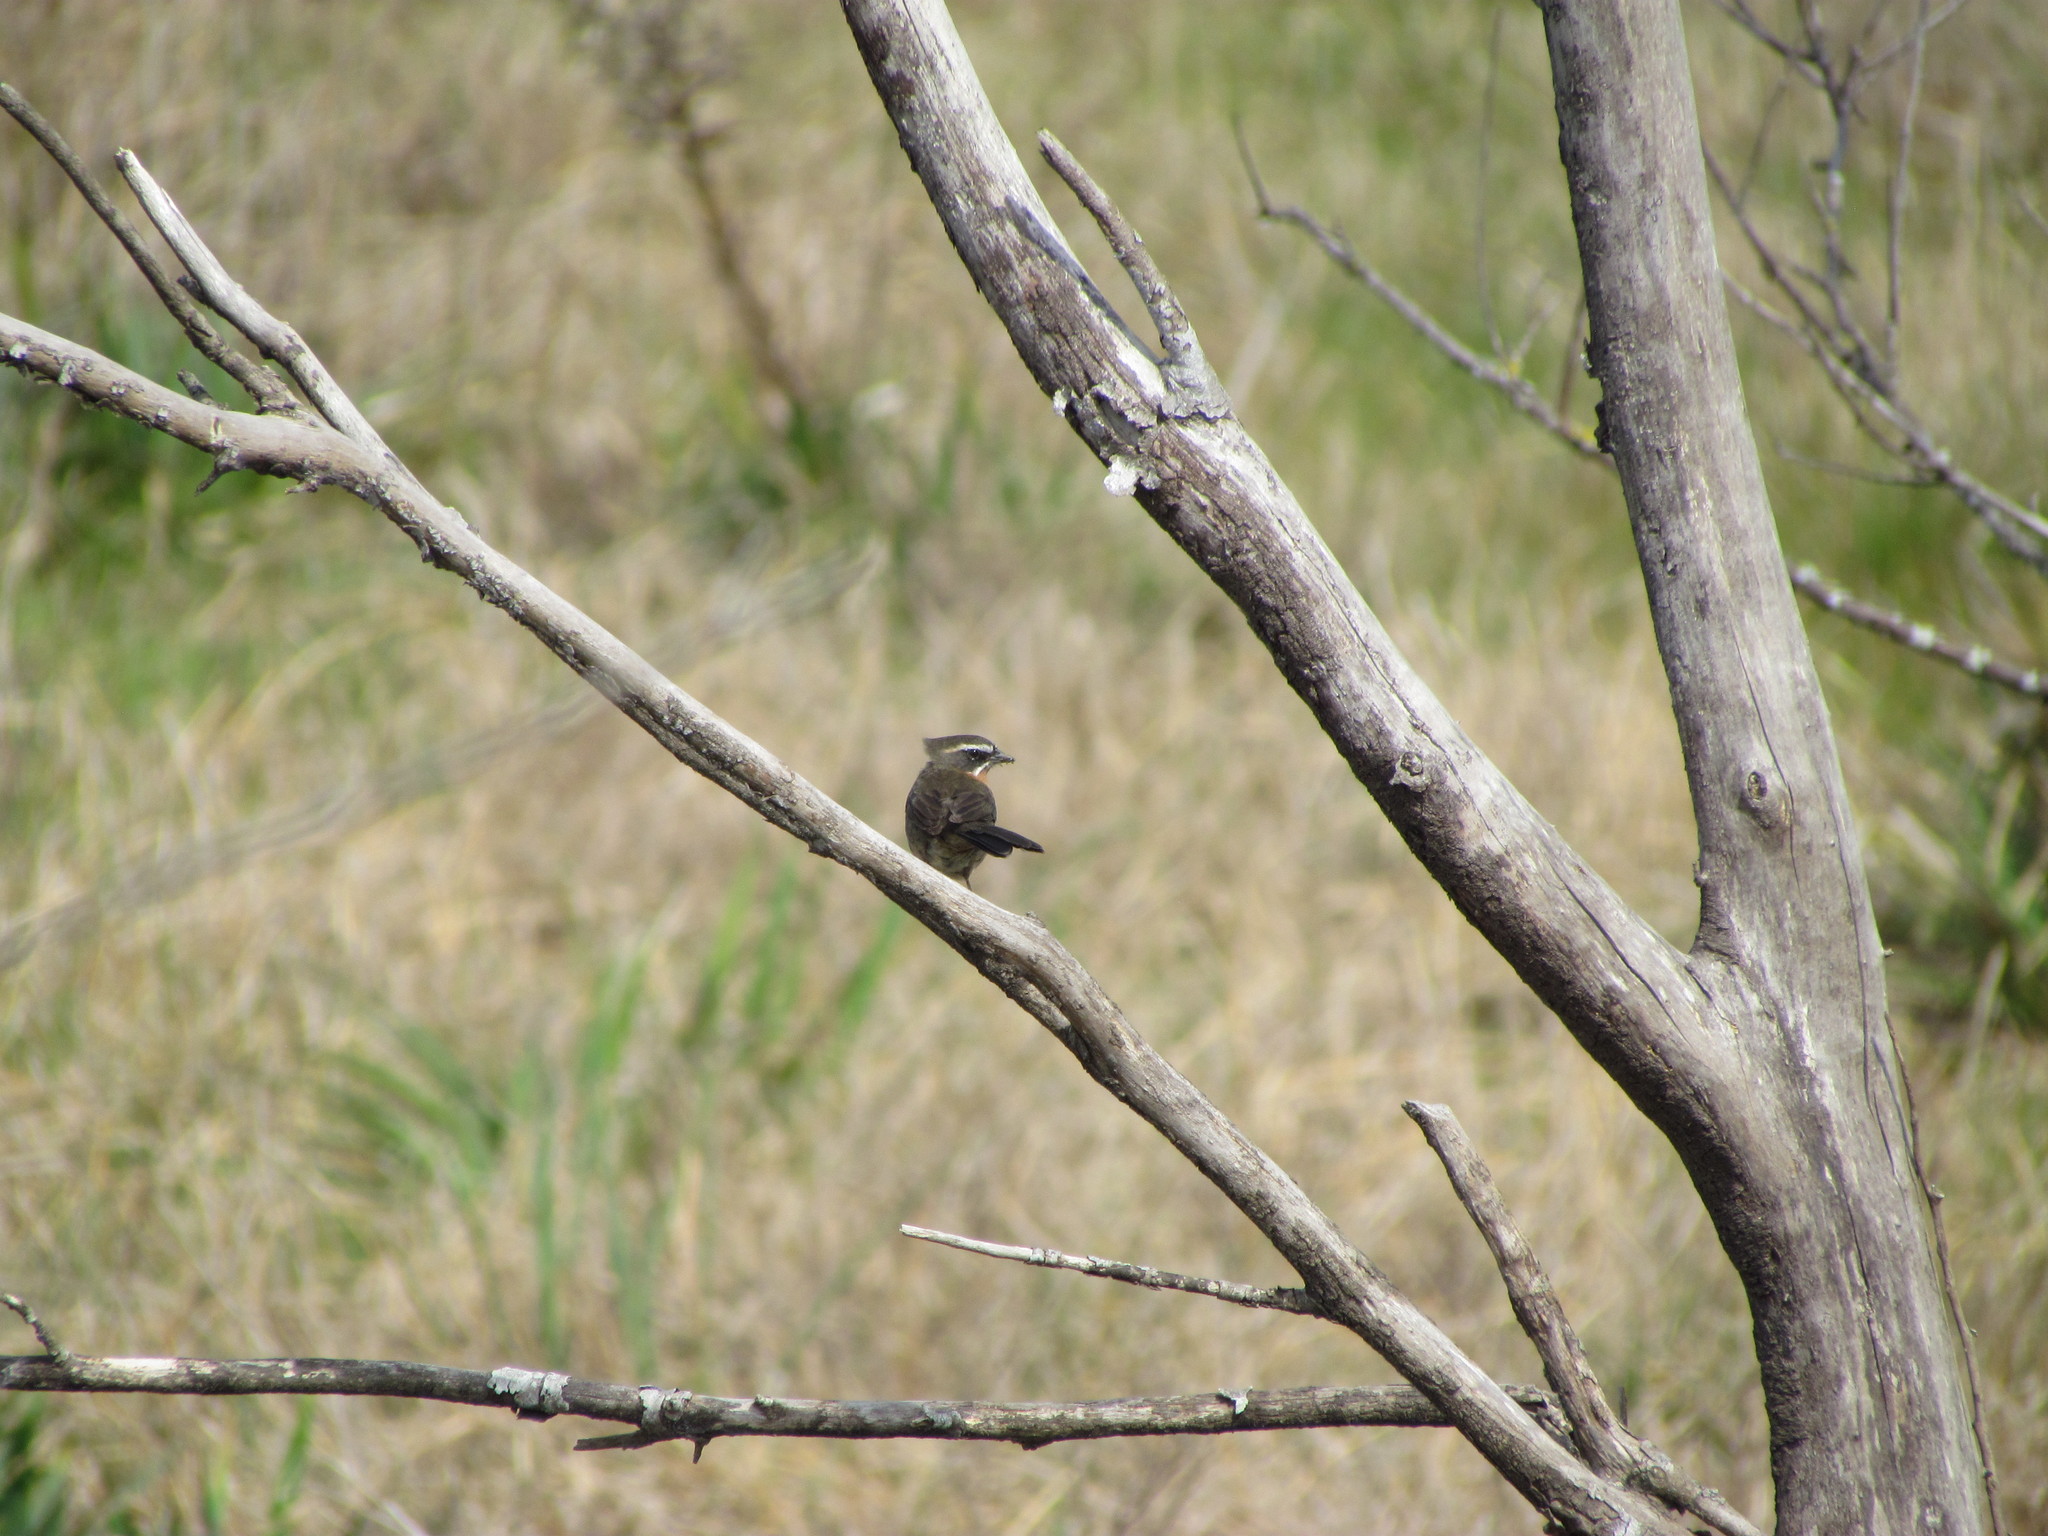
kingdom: Animalia
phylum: Chordata
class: Aves
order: Passeriformes
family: Thraupidae
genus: Poospiza
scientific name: Poospiza nigrorufa
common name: Black-and-rufous warbling finch
